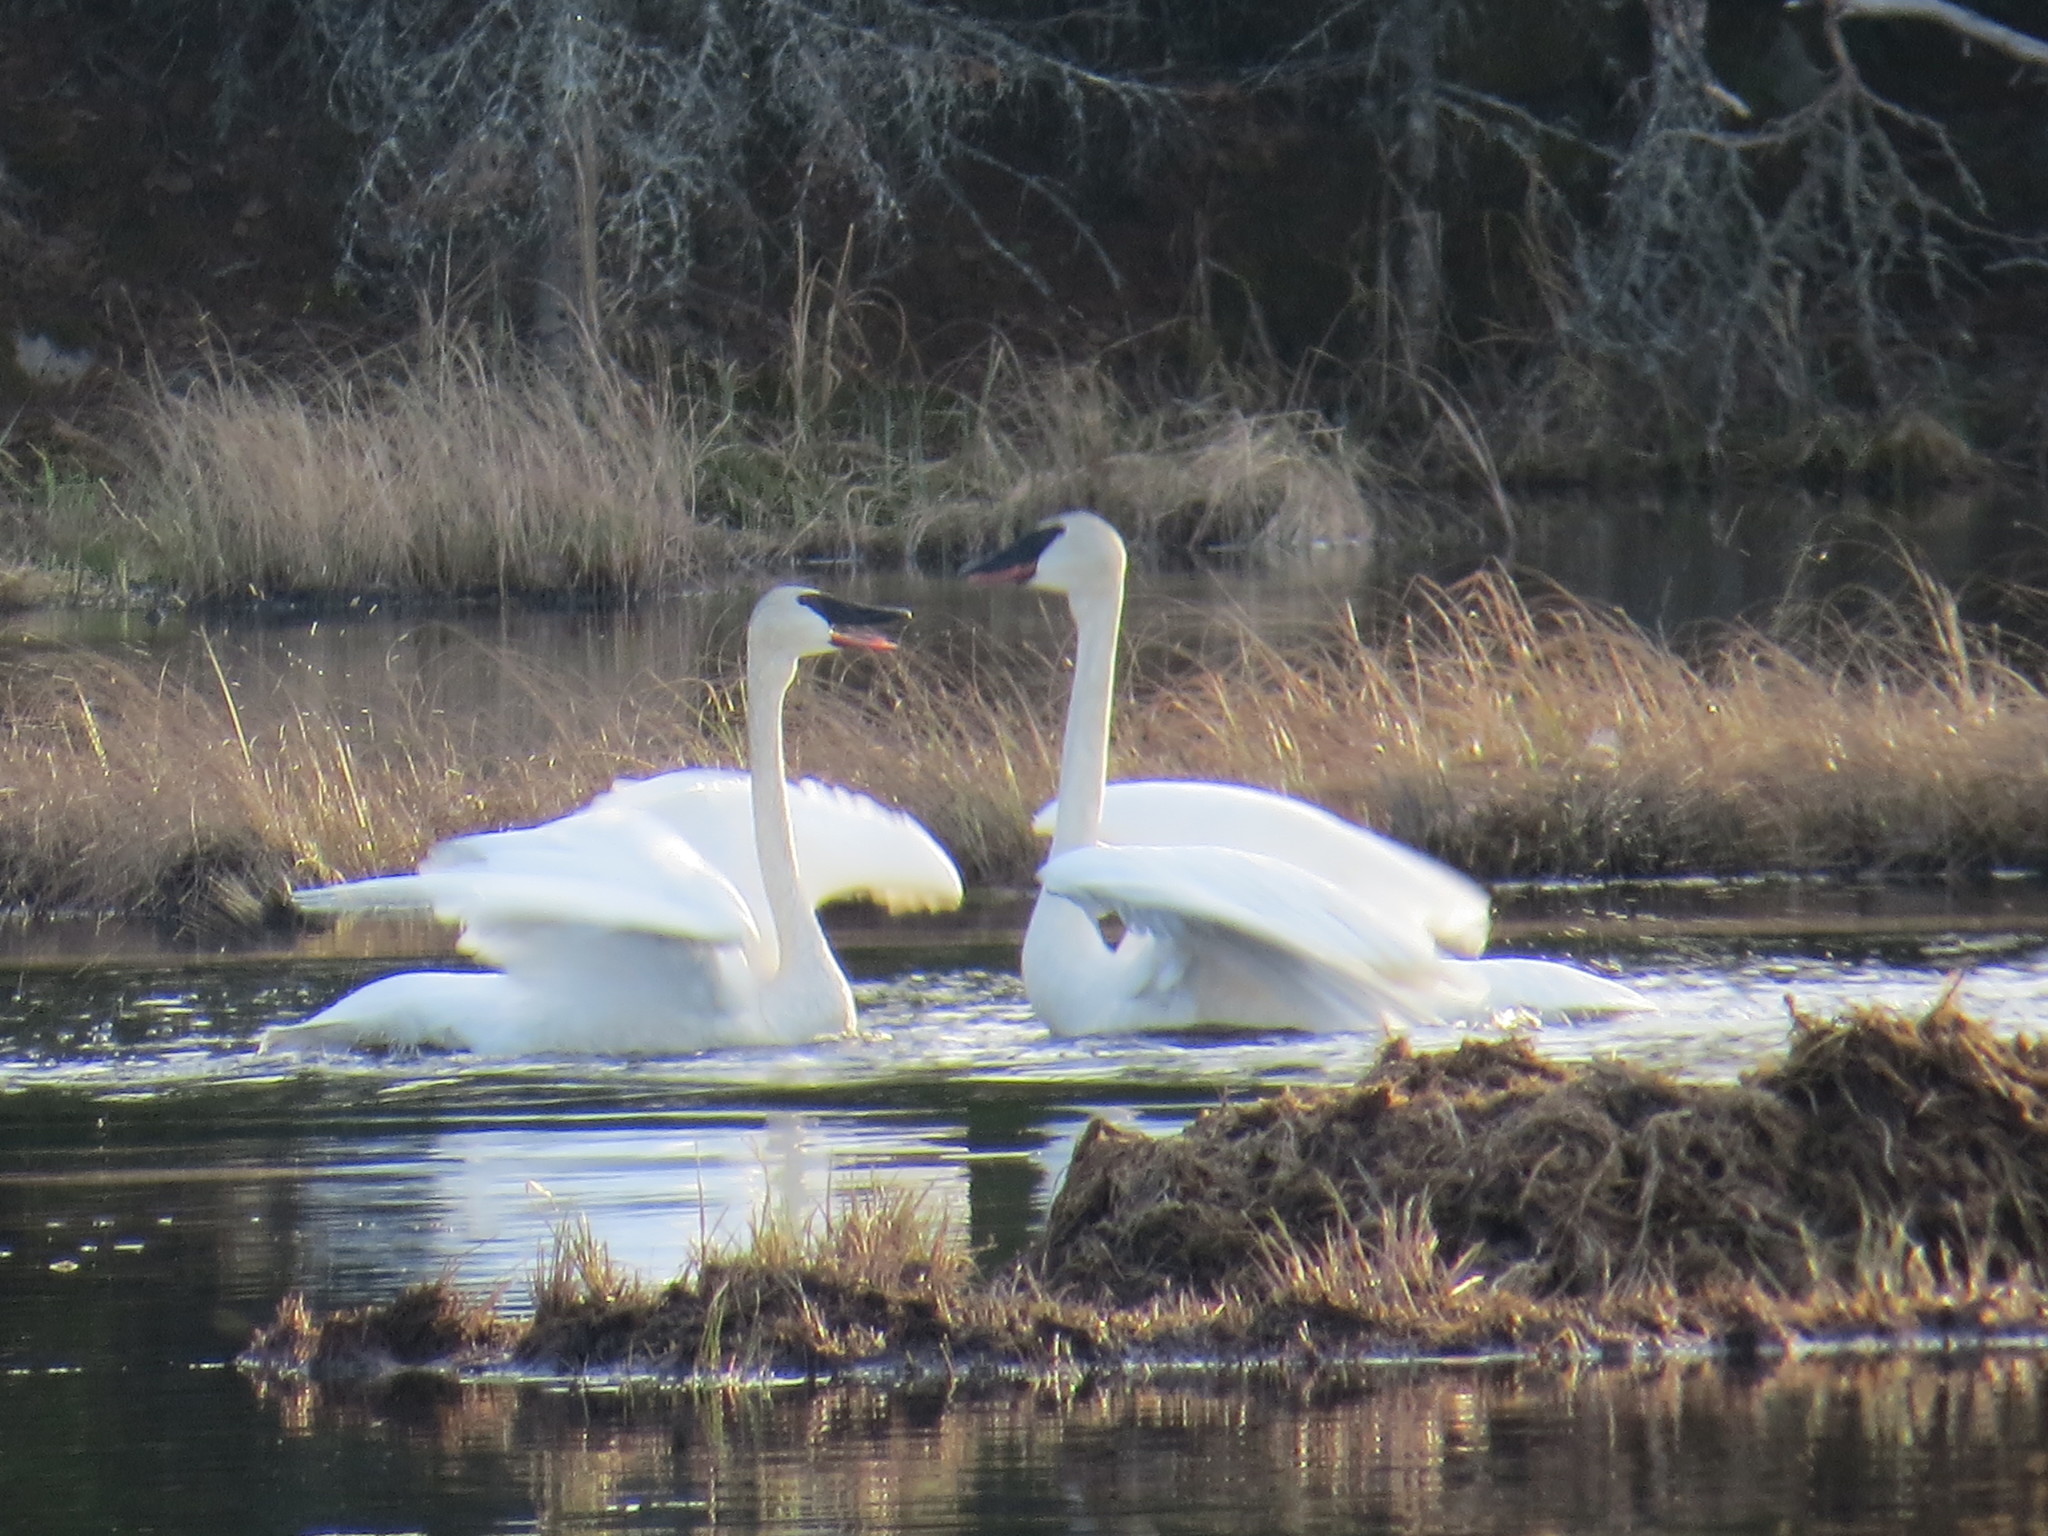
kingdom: Animalia
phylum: Chordata
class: Aves
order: Anseriformes
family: Anatidae
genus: Cygnus
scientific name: Cygnus buccinator
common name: Trumpeter swan
